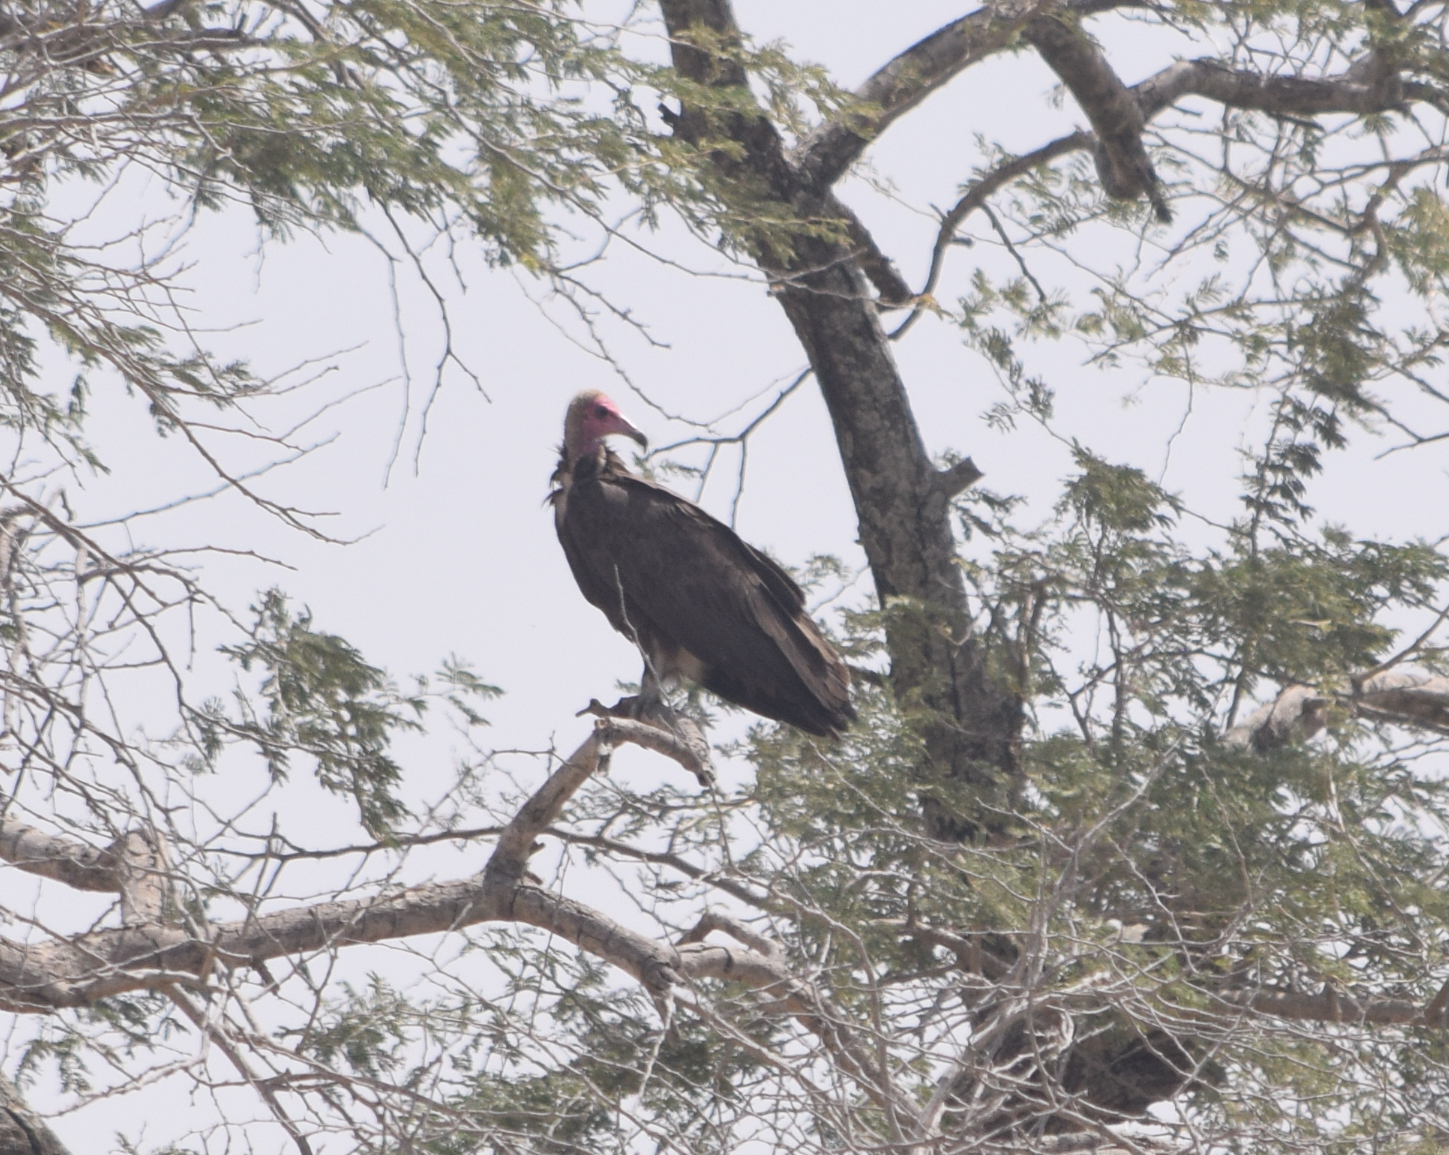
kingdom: Animalia
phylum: Chordata
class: Aves
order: Accipitriformes
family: Accipitridae
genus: Necrosyrtes
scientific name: Necrosyrtes monachus
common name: Hooded vulture
